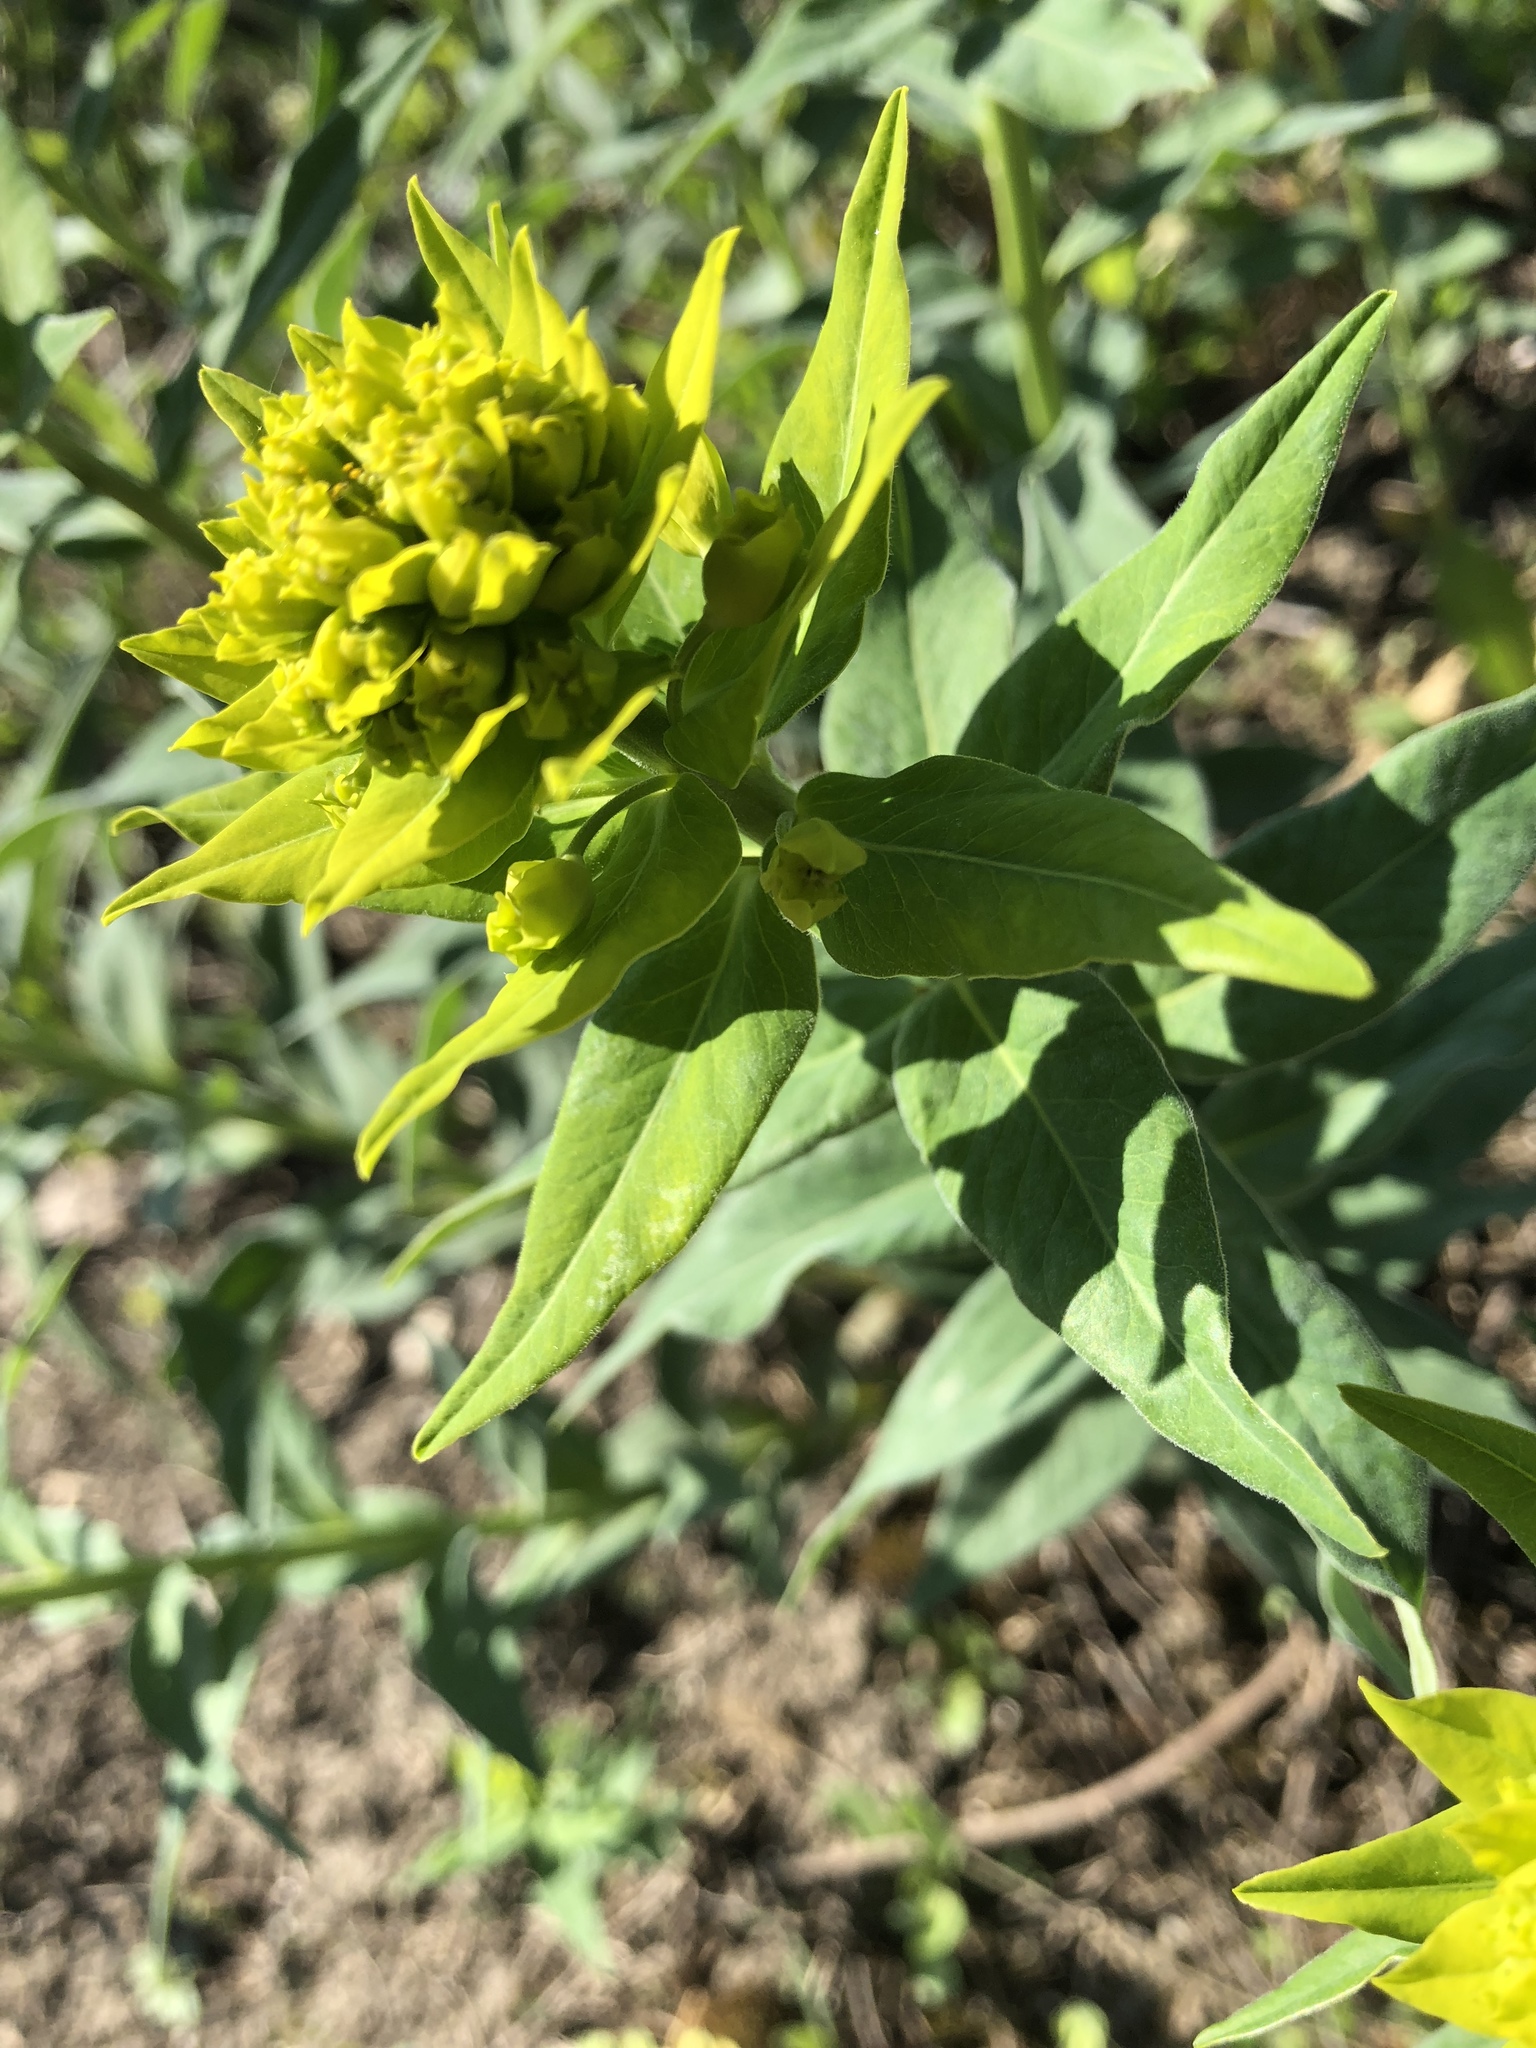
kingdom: Plantae
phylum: Tracheophyta
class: Magnoliopsida
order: Malpighiales
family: Euphorbiaceae
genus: Euphorbia
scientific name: Euphorbia salicifolia
